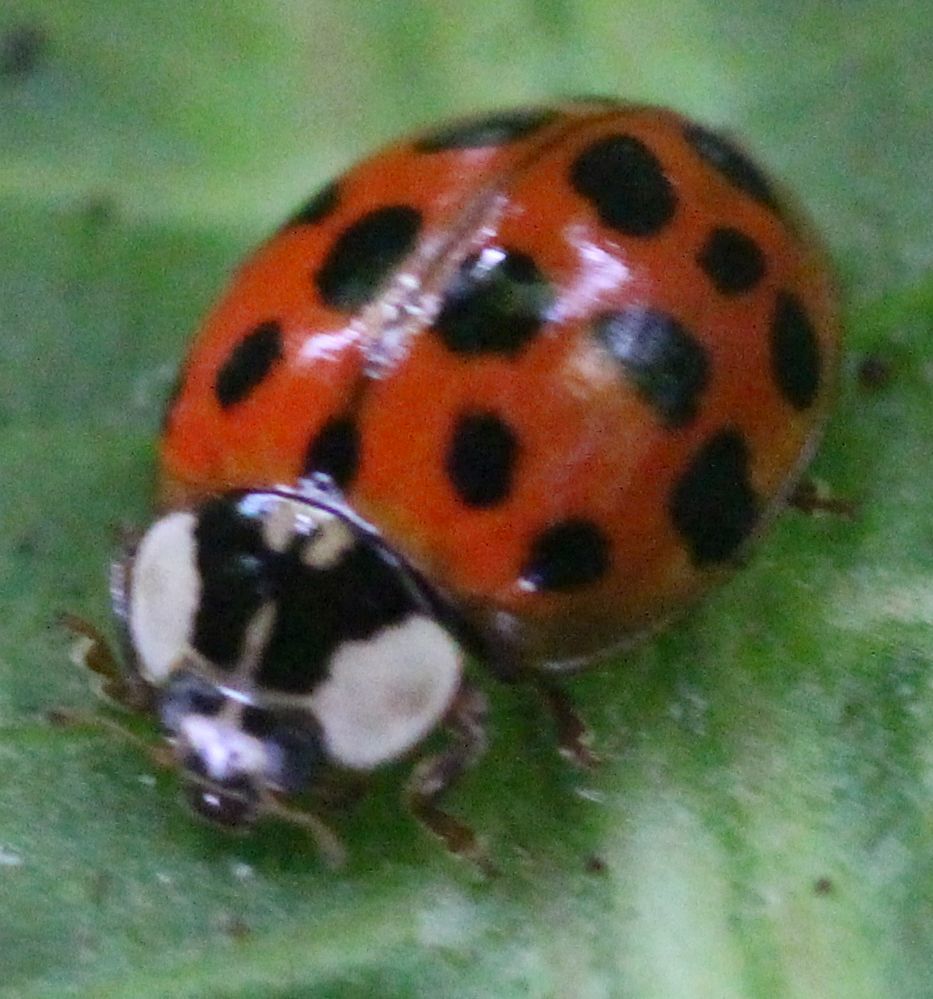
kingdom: Animalia
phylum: Arthropoda
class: Insecta
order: Coleoptera
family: Coccinellidae
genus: Harmonia
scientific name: Harmonia axyridis
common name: Harlequin ladybird
